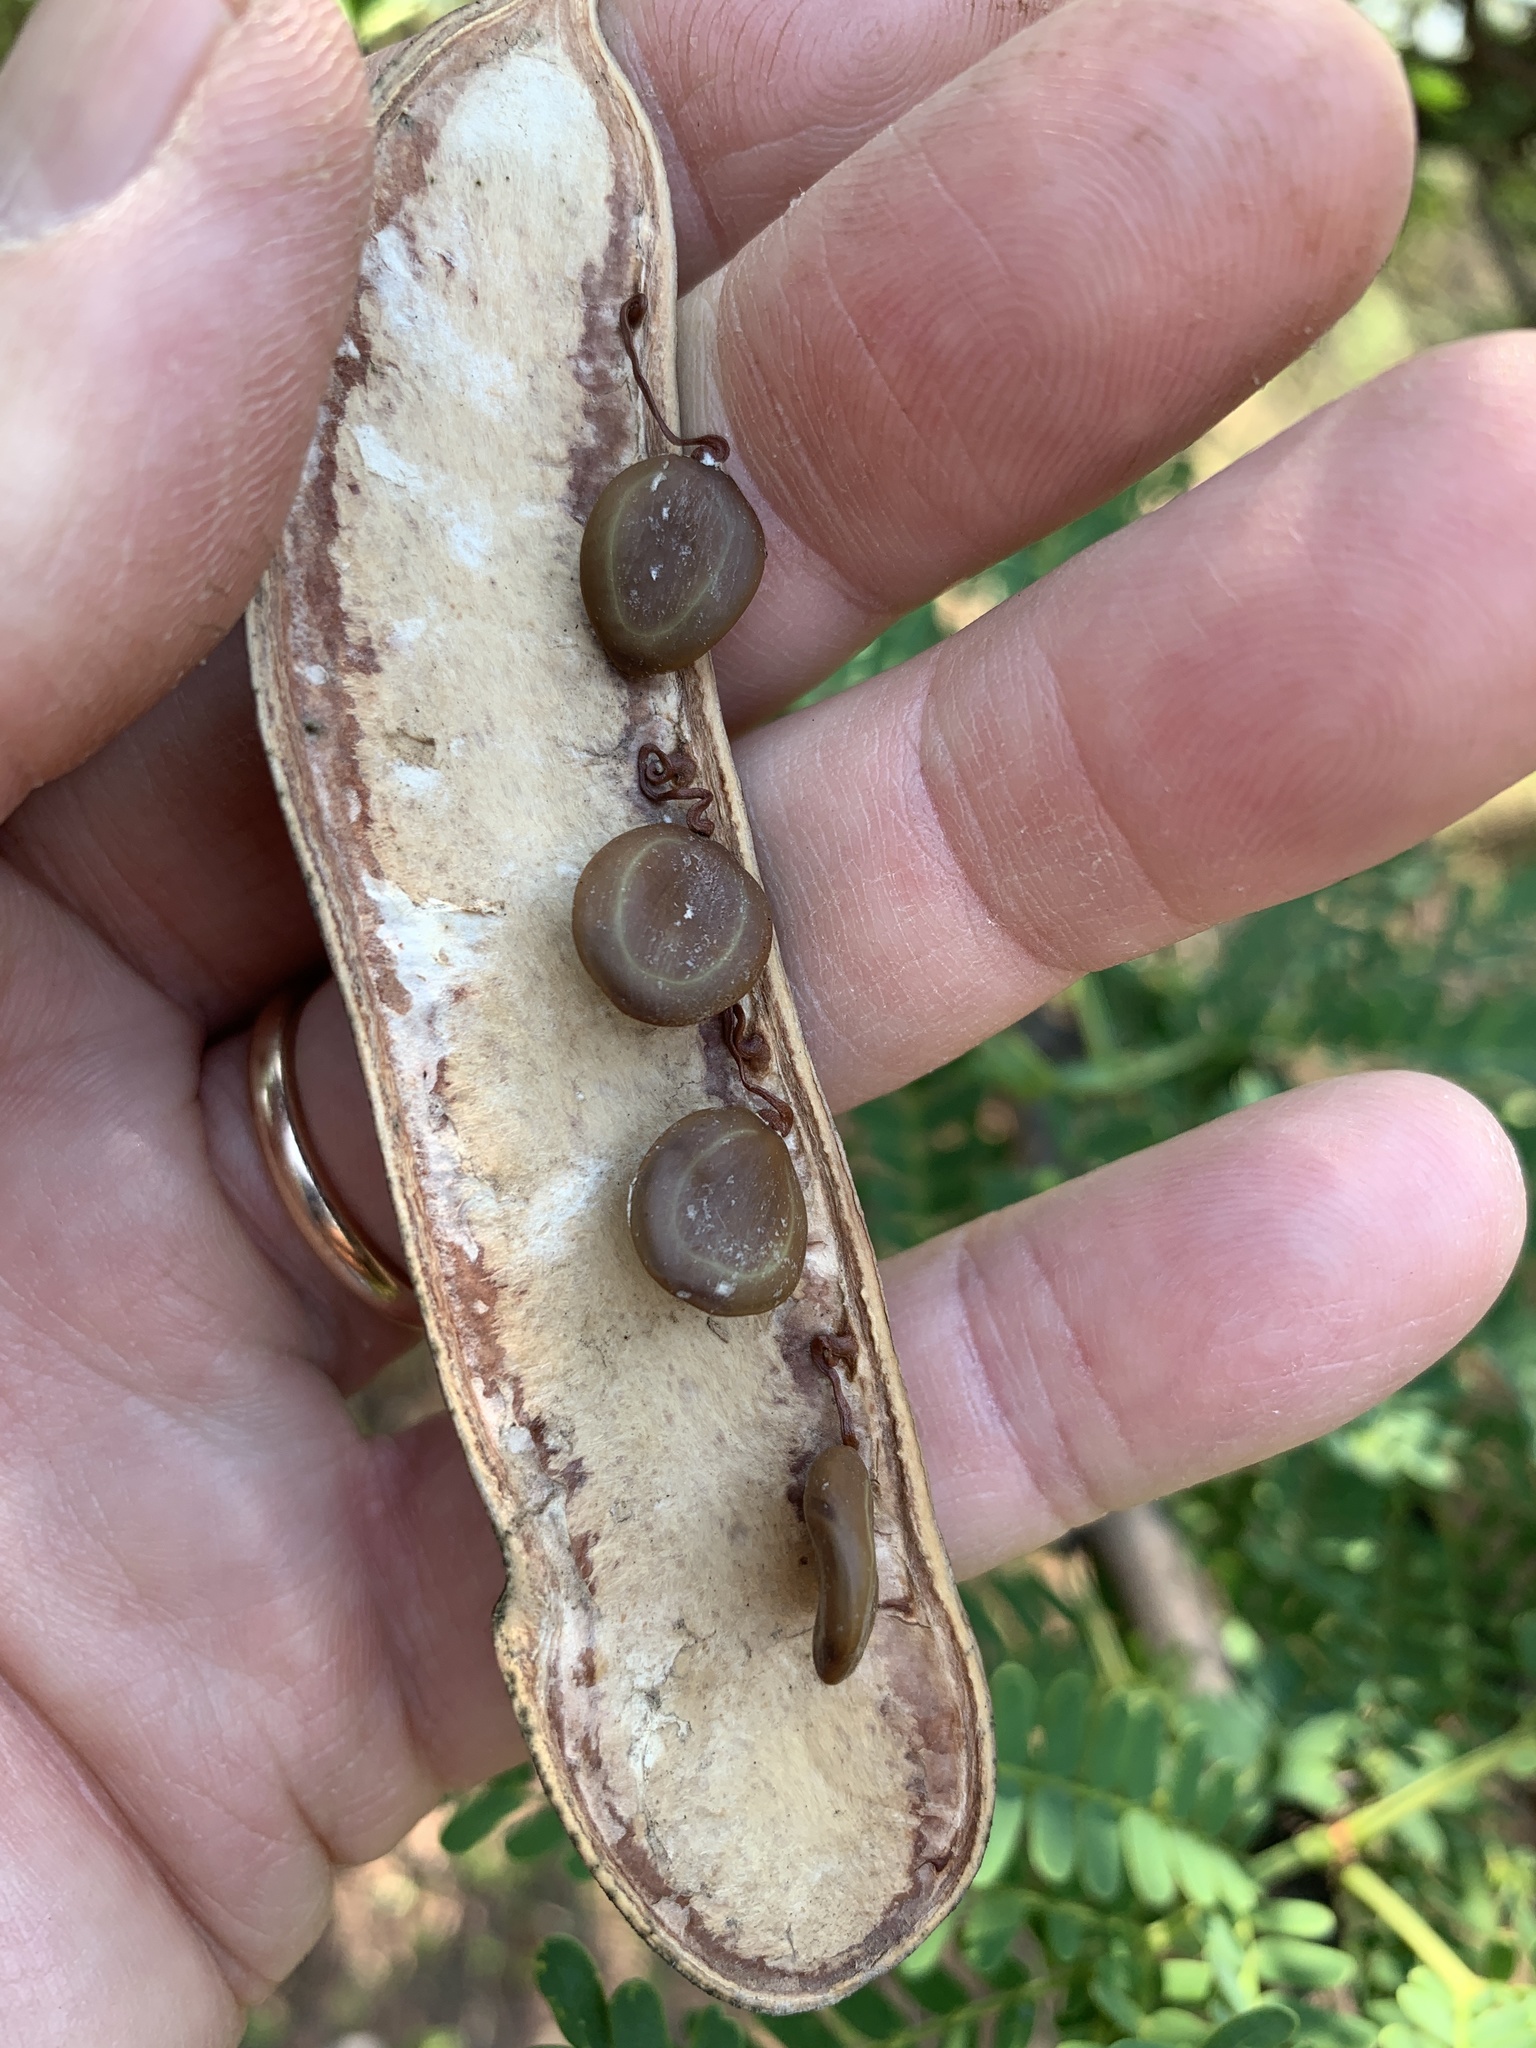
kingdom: Plantae
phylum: Tracheophyta
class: Magnoliopsida
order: Fabales
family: Fabaceae
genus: Vachellia
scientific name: Vachellia robusta
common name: Ankle thorn
